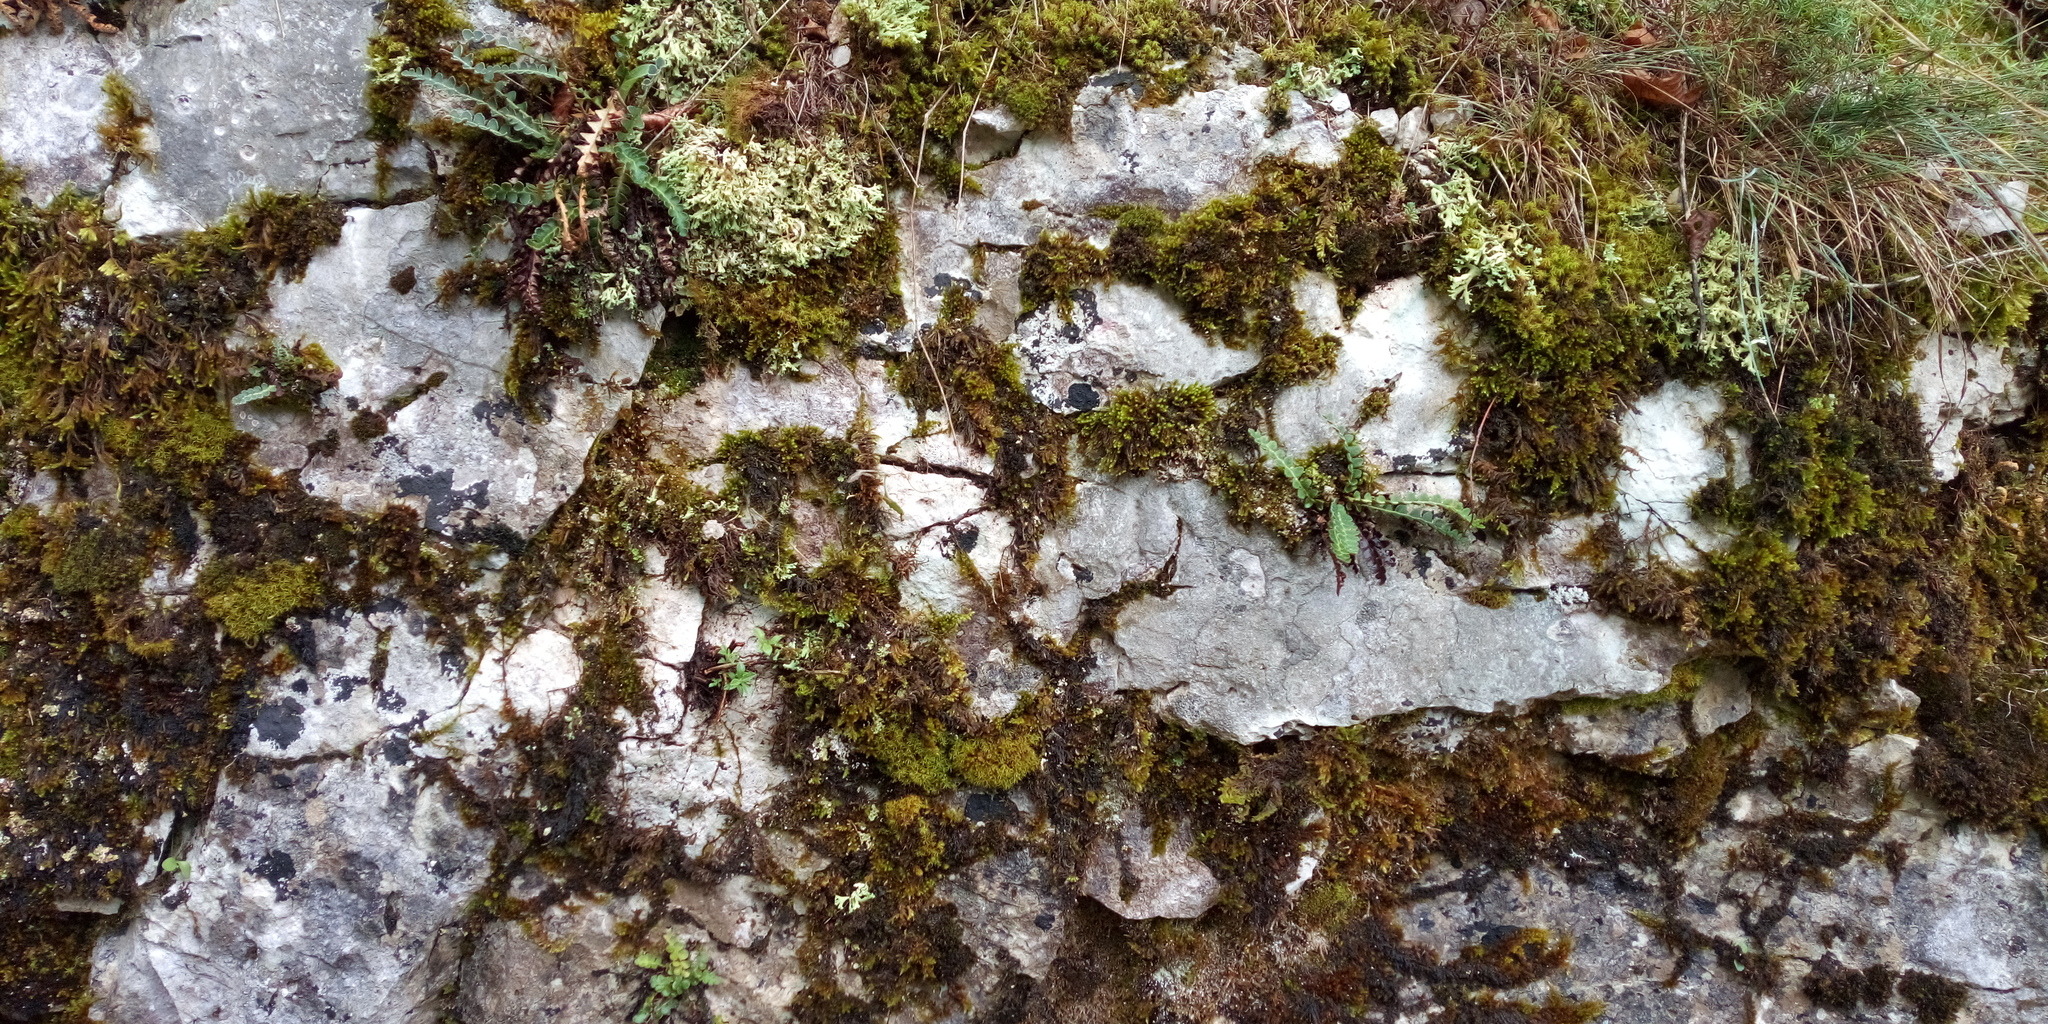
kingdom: Plantae
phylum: Tracheophyta
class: Polypodiopsida
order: Polypodiales
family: Aspleniaceae
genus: Asplenium
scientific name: Asplenium ceterach
